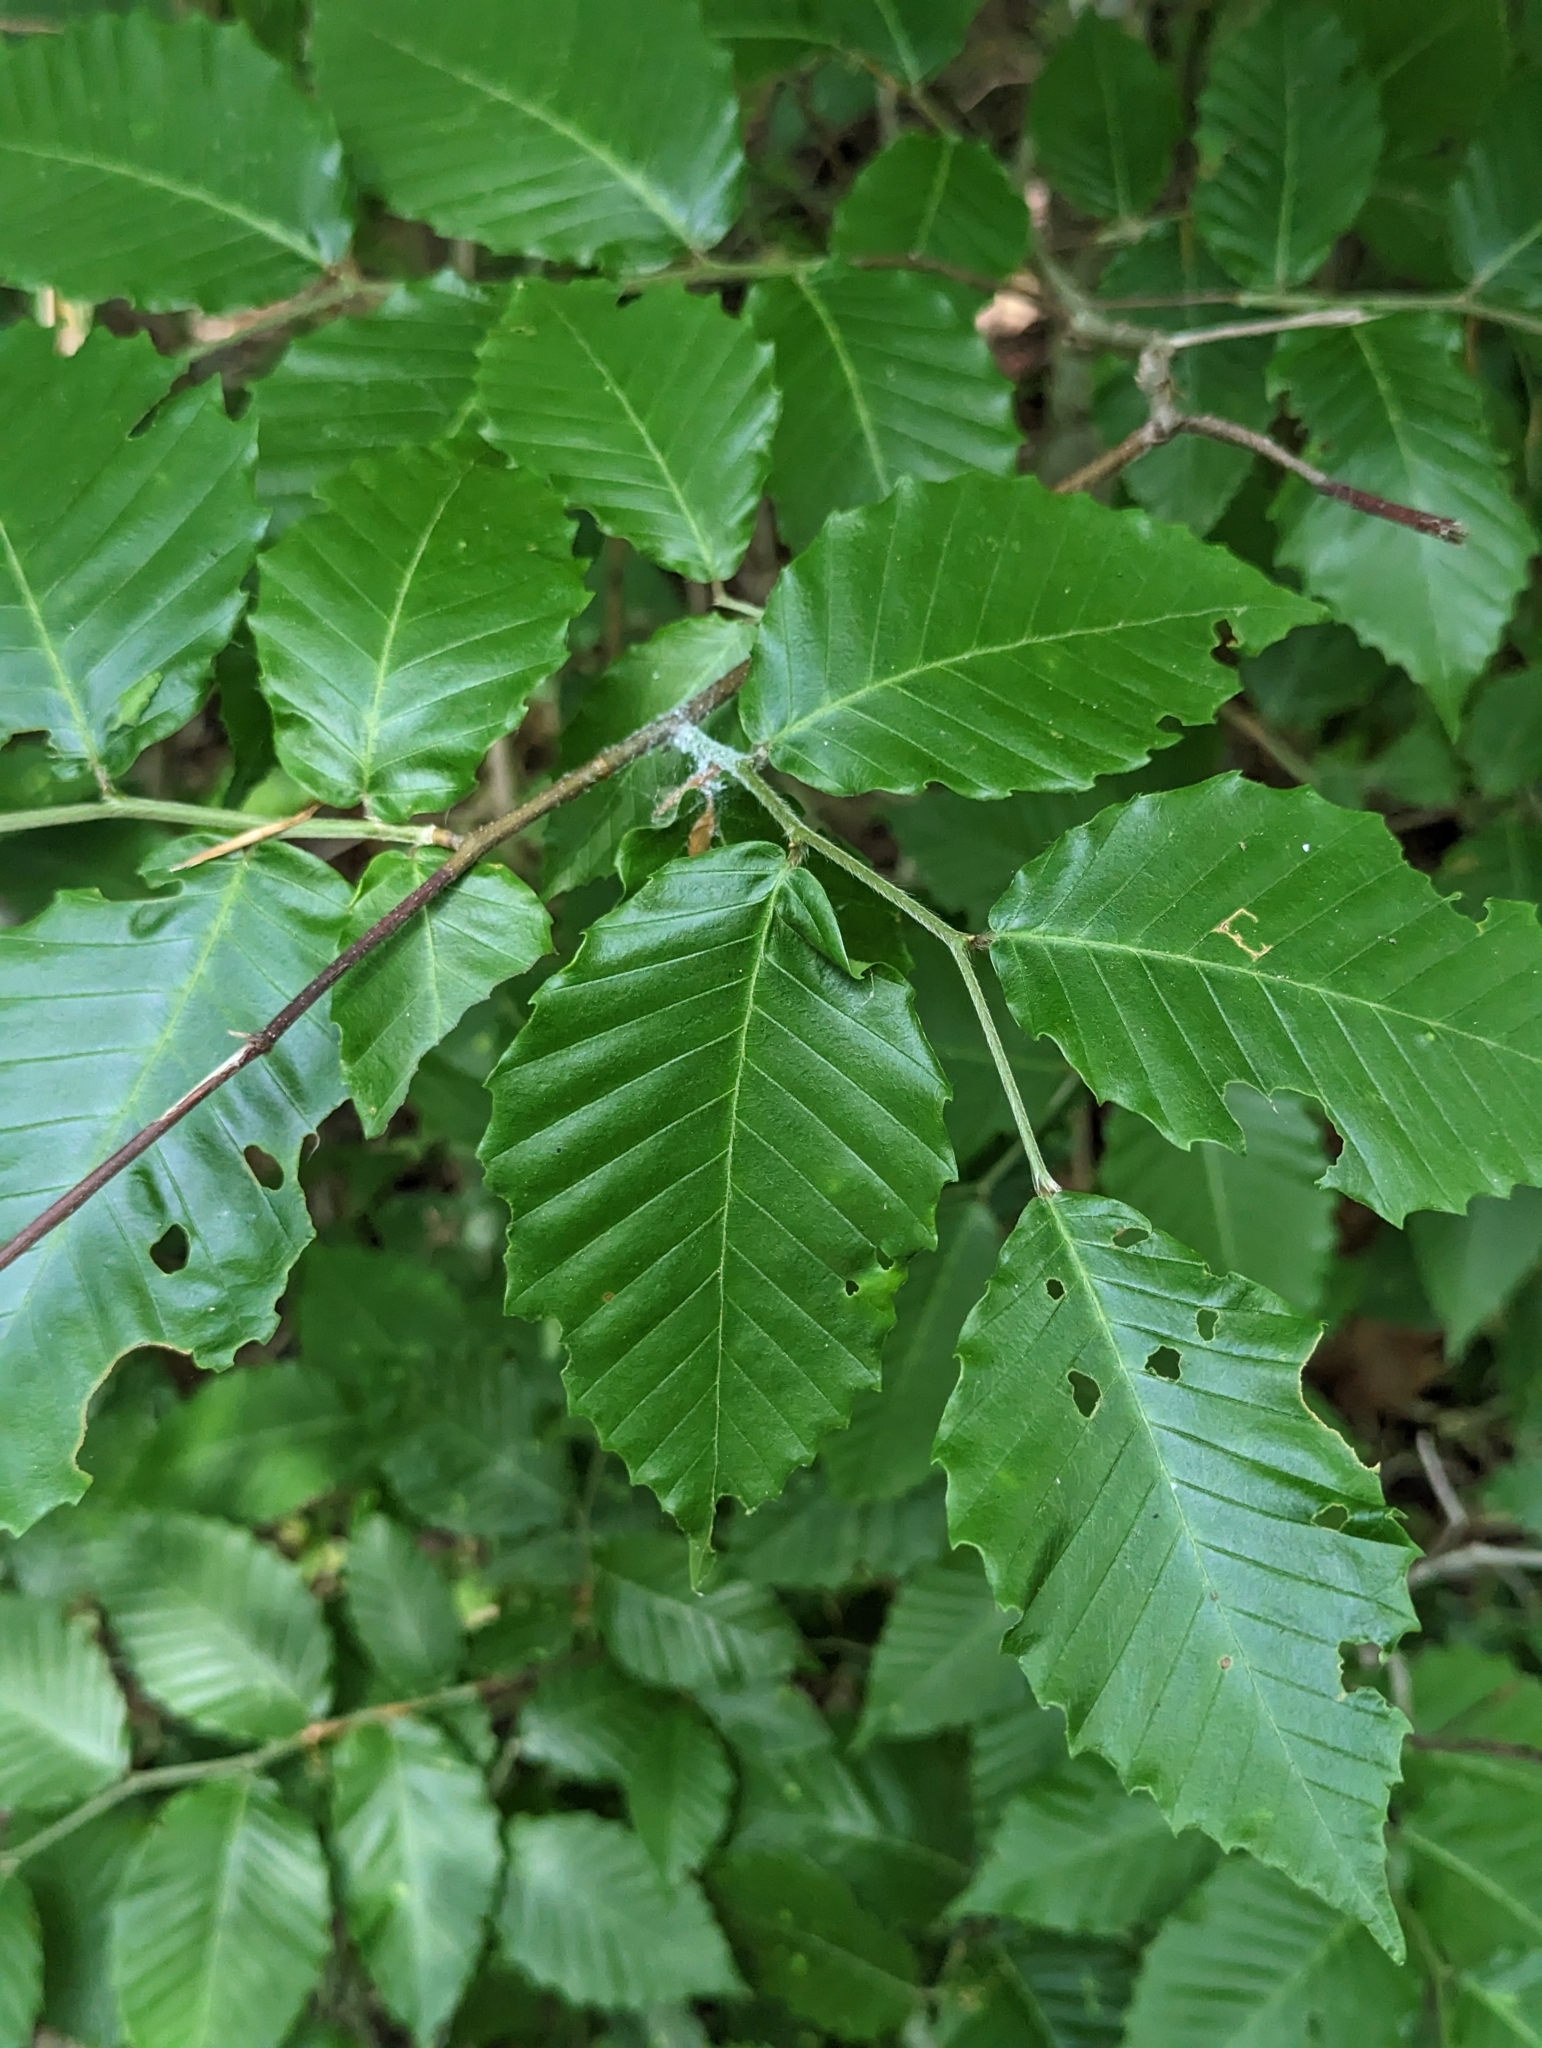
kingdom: Plantae
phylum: Tracheophyta
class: Magnoliopsida
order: Fagales
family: Fagaceae
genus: Fagus
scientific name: Fagus grandifolia
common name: American beech
